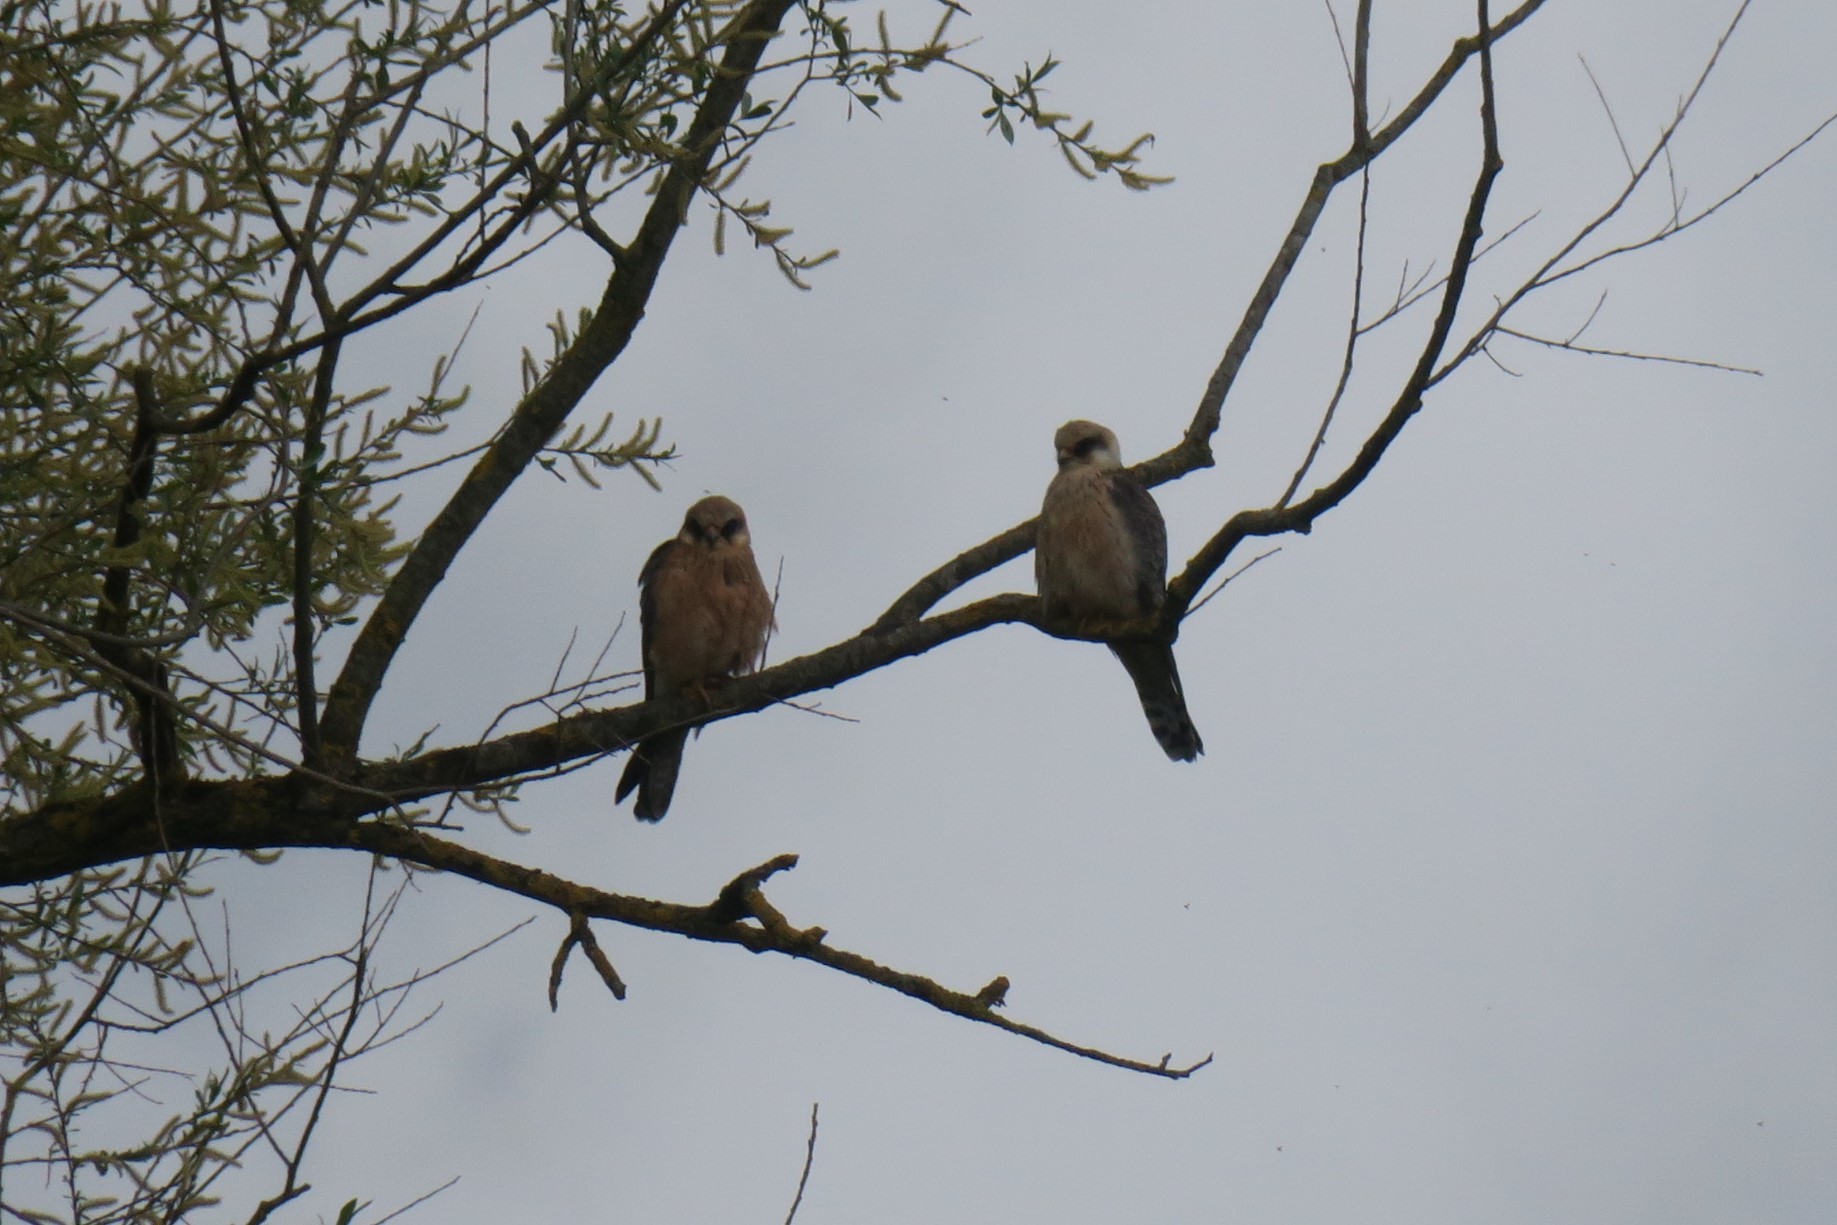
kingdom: Animalia
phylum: Chordata
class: Aves
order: Falconiformes
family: Falconidae
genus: Falco
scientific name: Falco vespertinus
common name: Red-footed falcon
